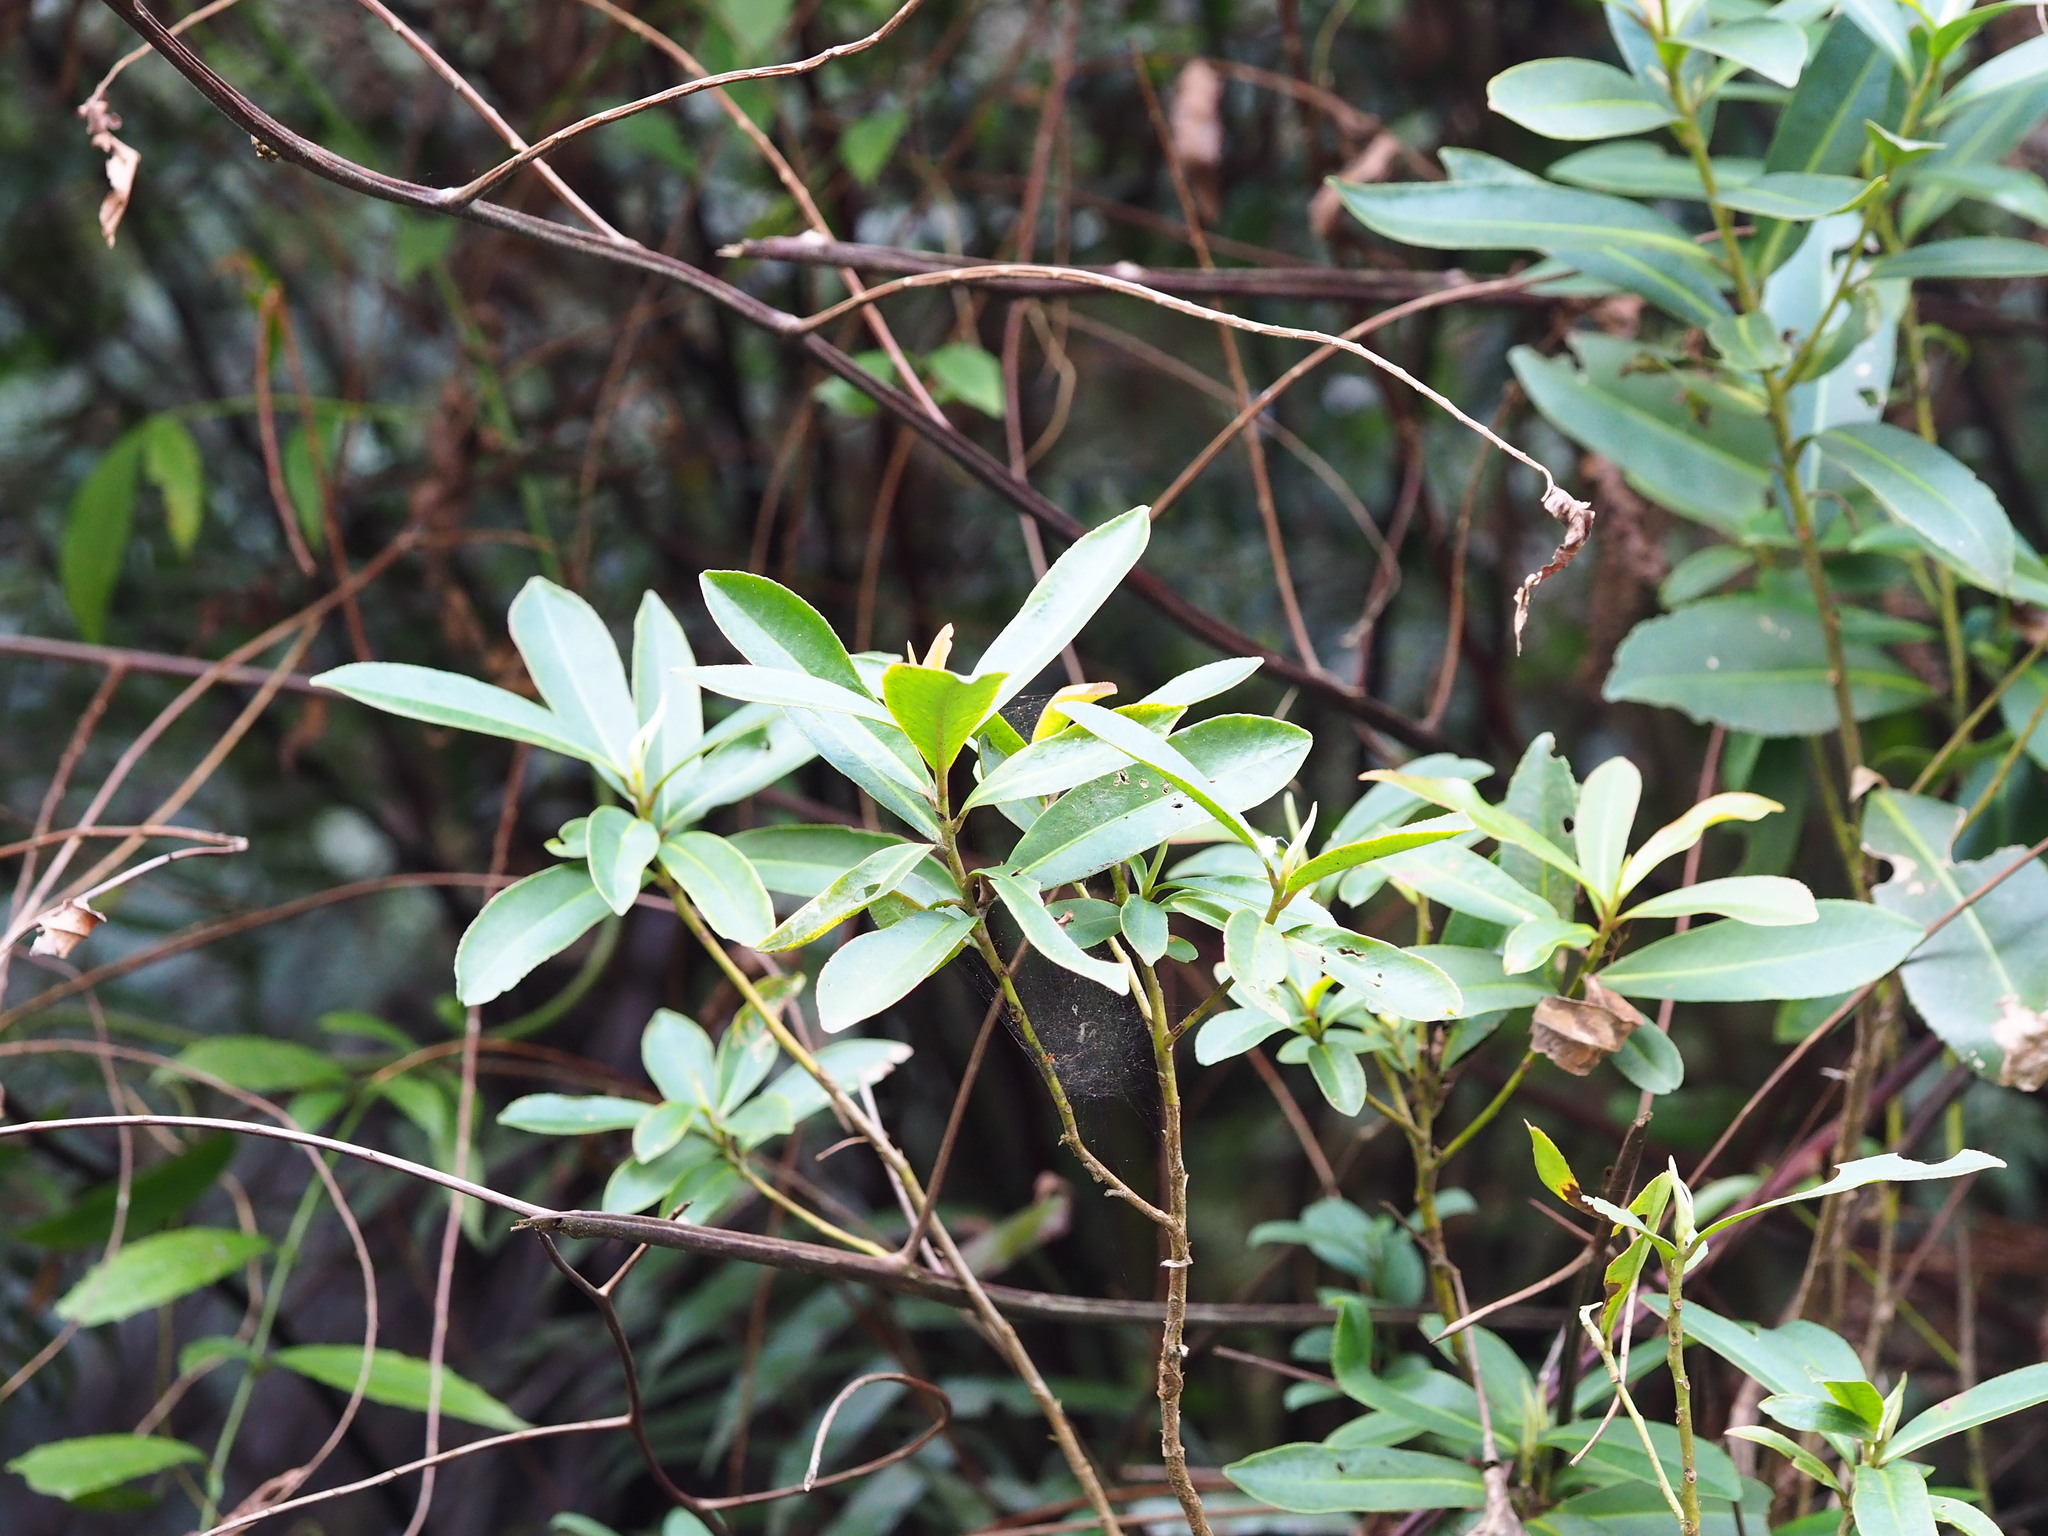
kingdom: Plantae
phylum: Tracheophyta
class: Magnoliopsida
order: Ericales
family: Theaceae
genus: Polyspora
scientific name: Polyspora axillaris
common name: Fried egg tree
